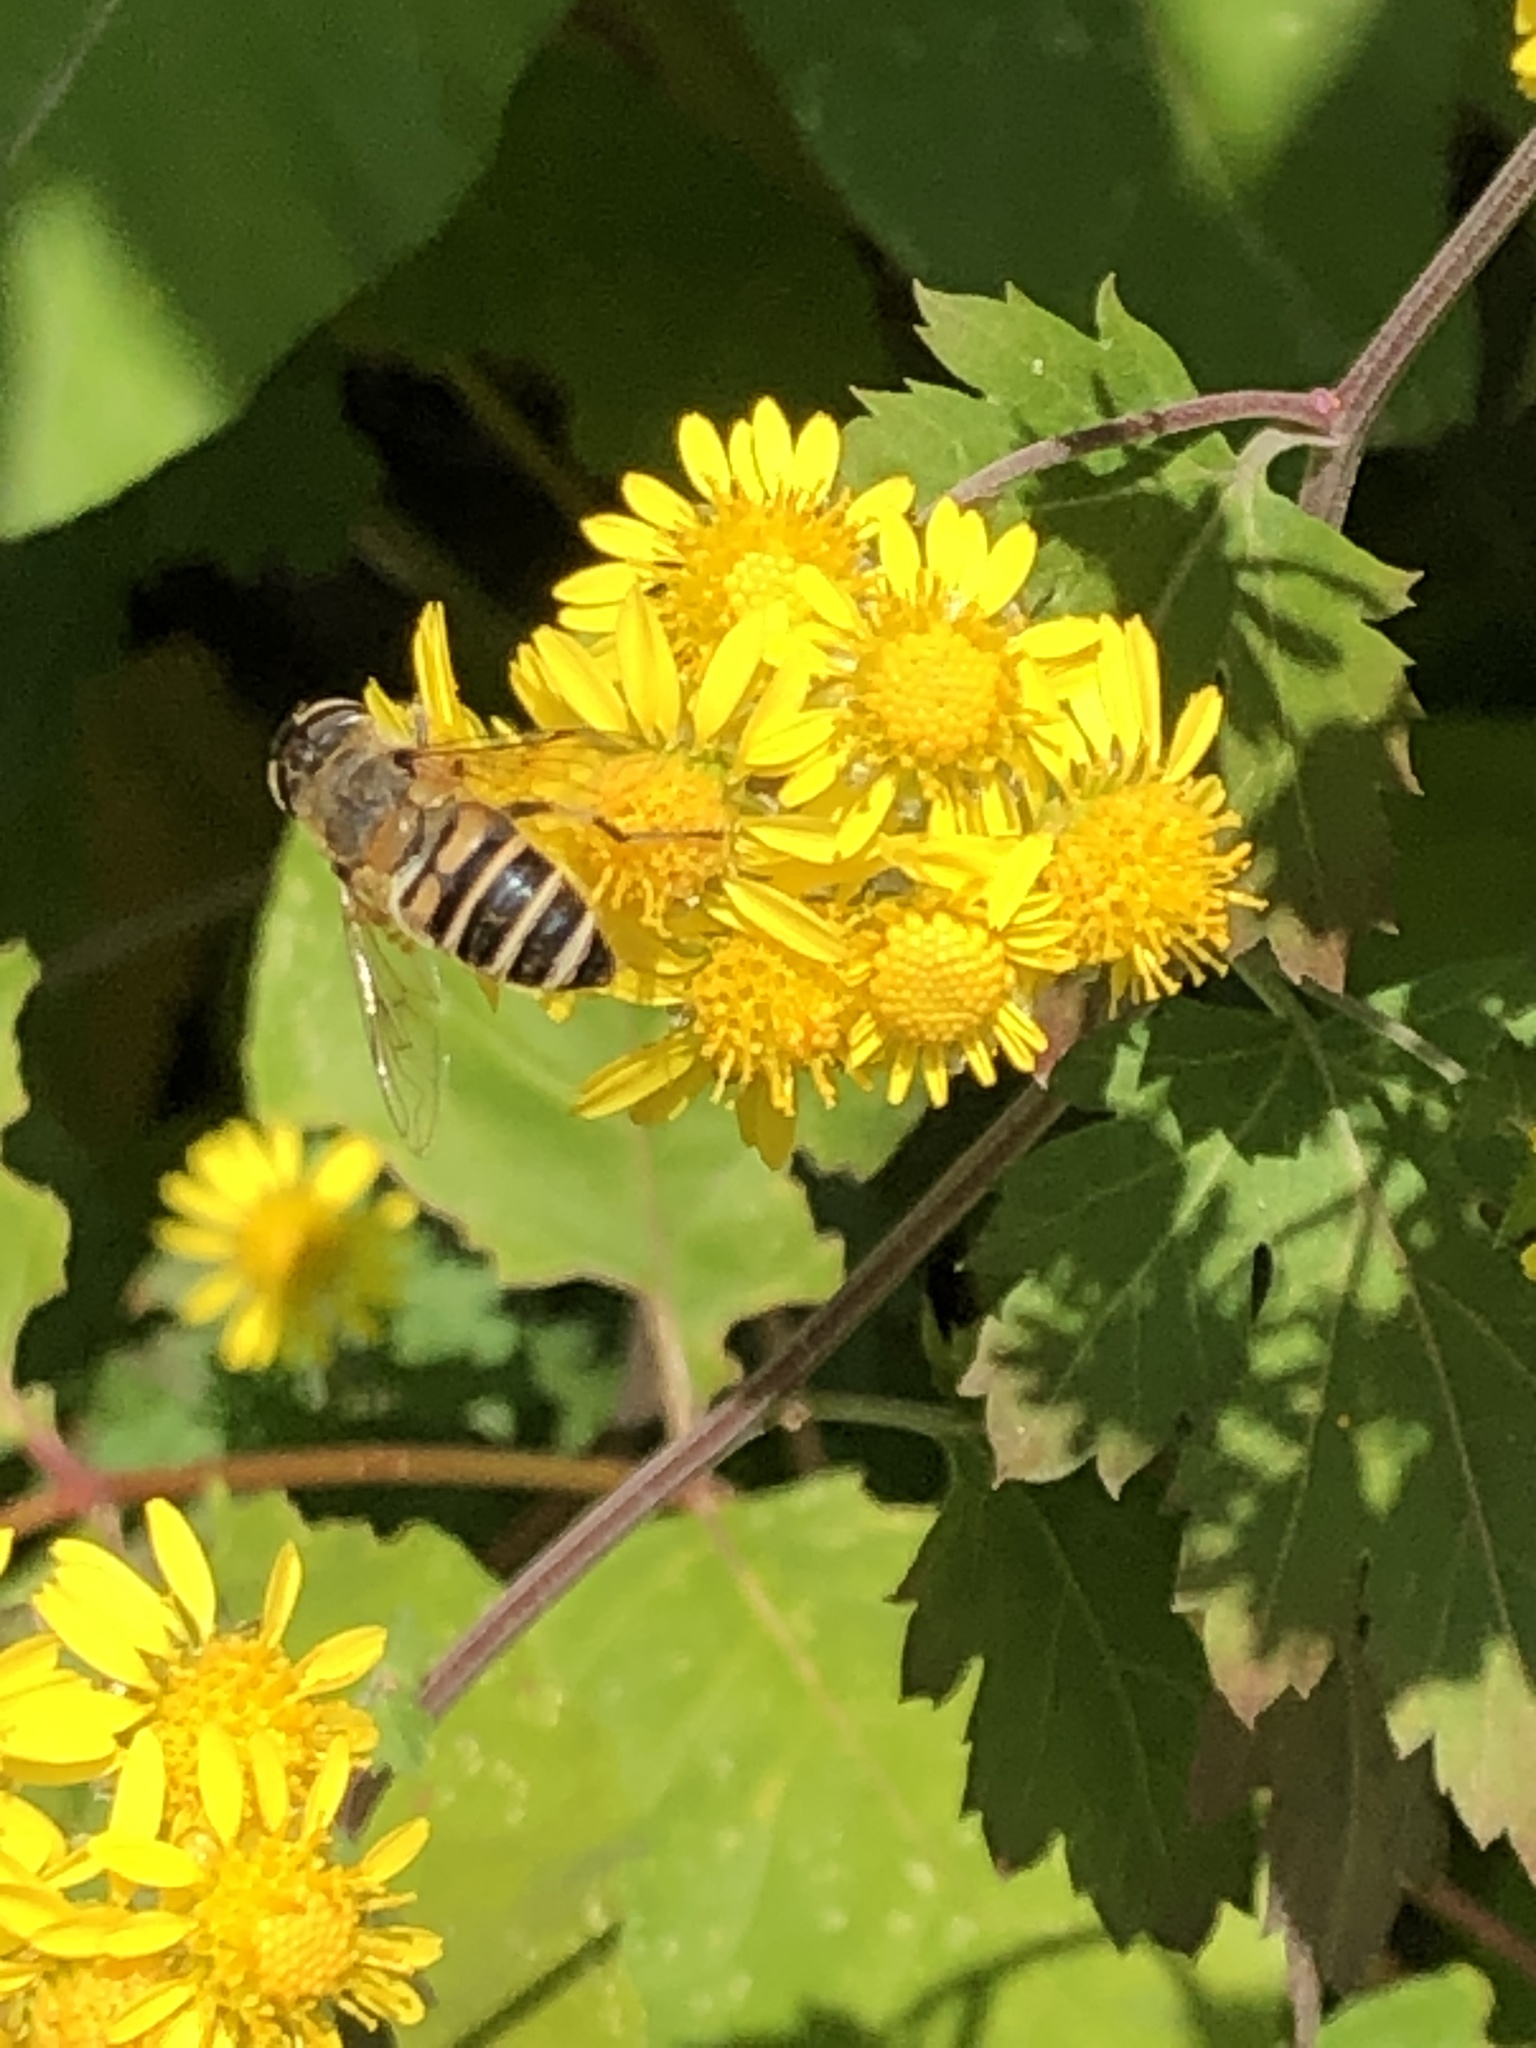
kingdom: Animalia
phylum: Arthropoda
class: Insecta
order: Diptera
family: Syrphidae
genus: Eristalis
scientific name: Eristalis cerealis
